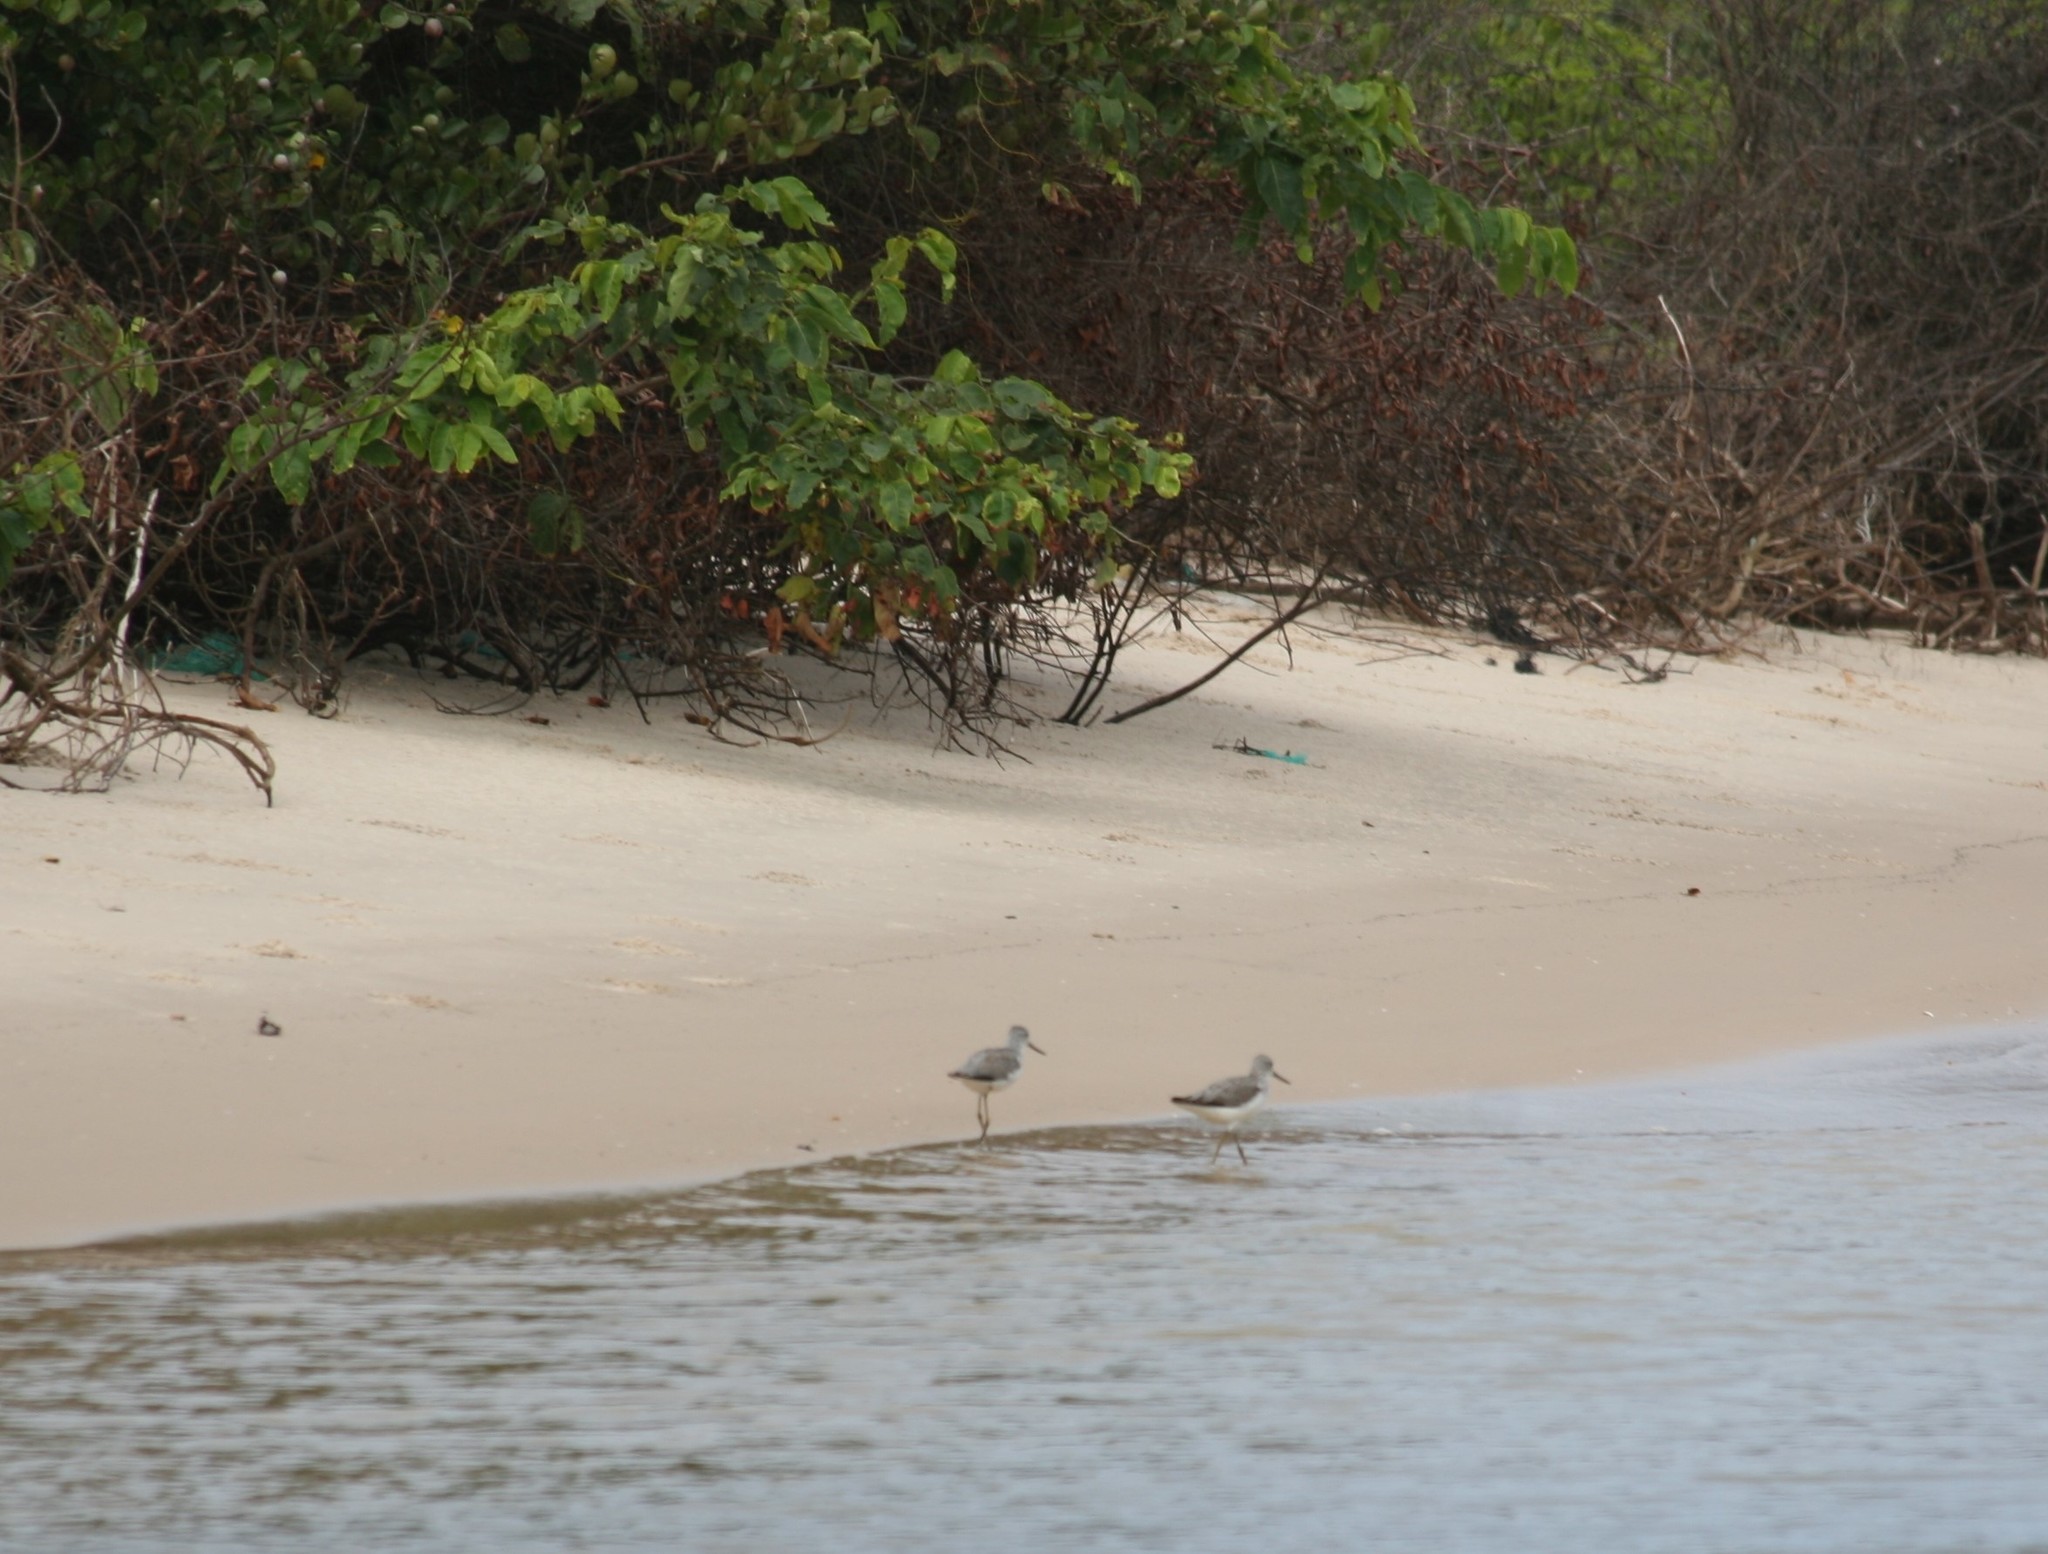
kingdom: Animalia
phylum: Chordata
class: Aves
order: Charadriiformes
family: Scolopacidae
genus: Tringa
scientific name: Tringa nebularia
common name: Common greenshank
